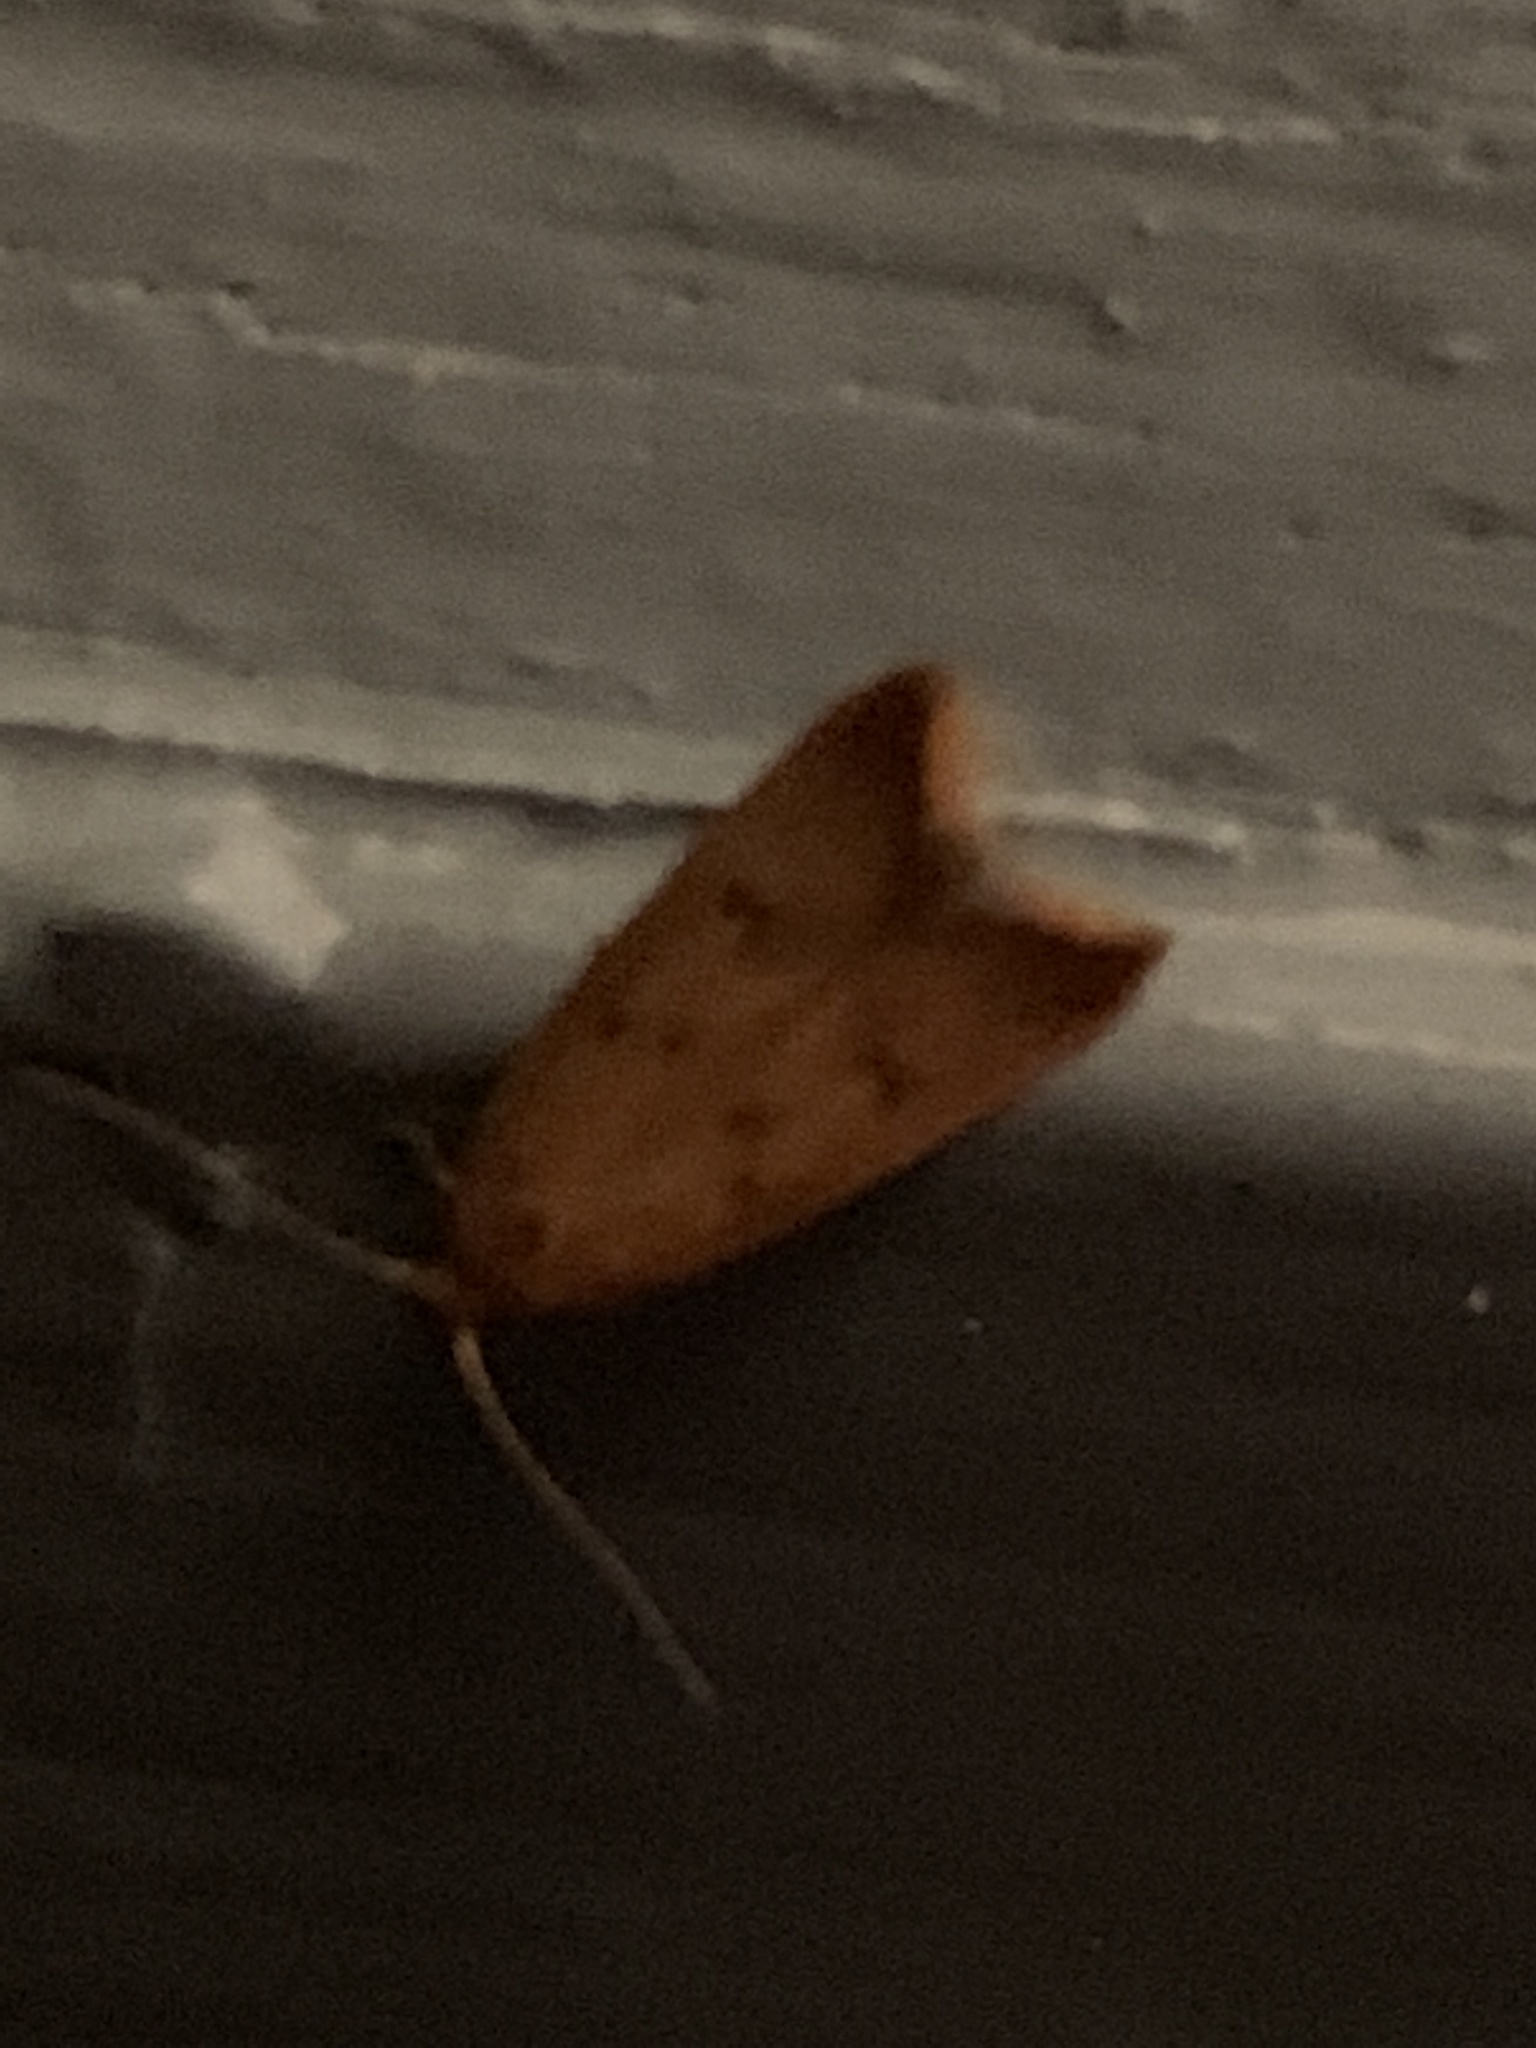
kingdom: Animalia
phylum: Arthropoda
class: Insecta
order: Lepidoptera
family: Oecophoridae
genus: Tachystola
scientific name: Tachystola acroxantha
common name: Ruddy streak
